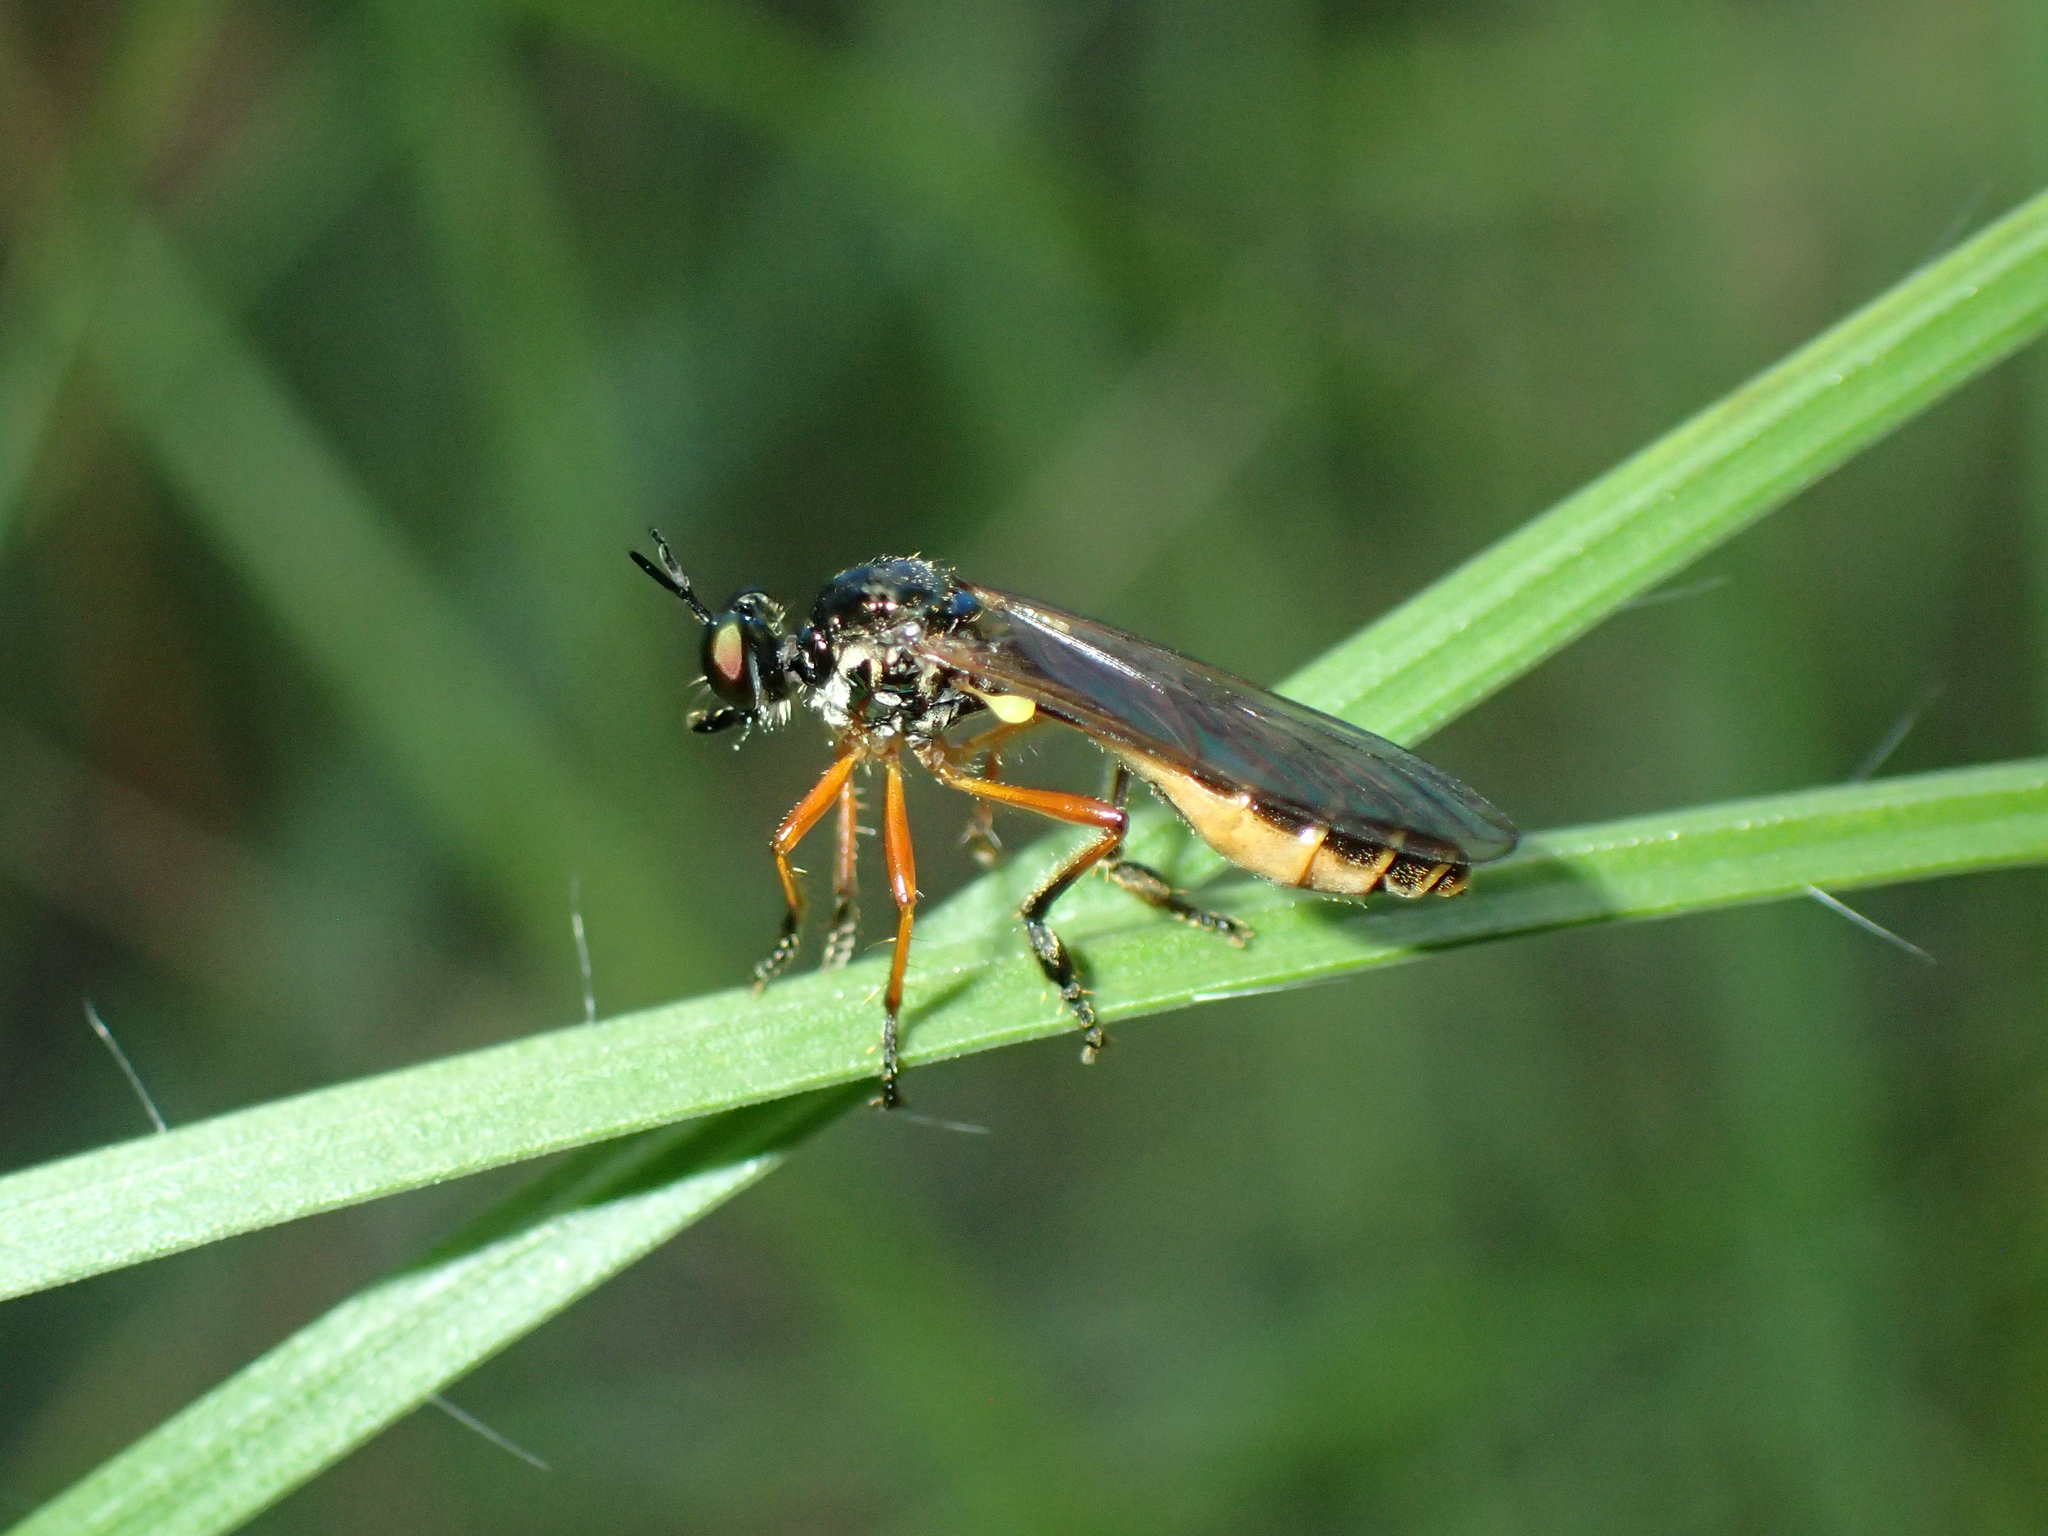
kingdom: Animalia
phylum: Arthropoda
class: Insecta
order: Diptera
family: Asilidae
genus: Dioctria
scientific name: Dioctria bicincta
